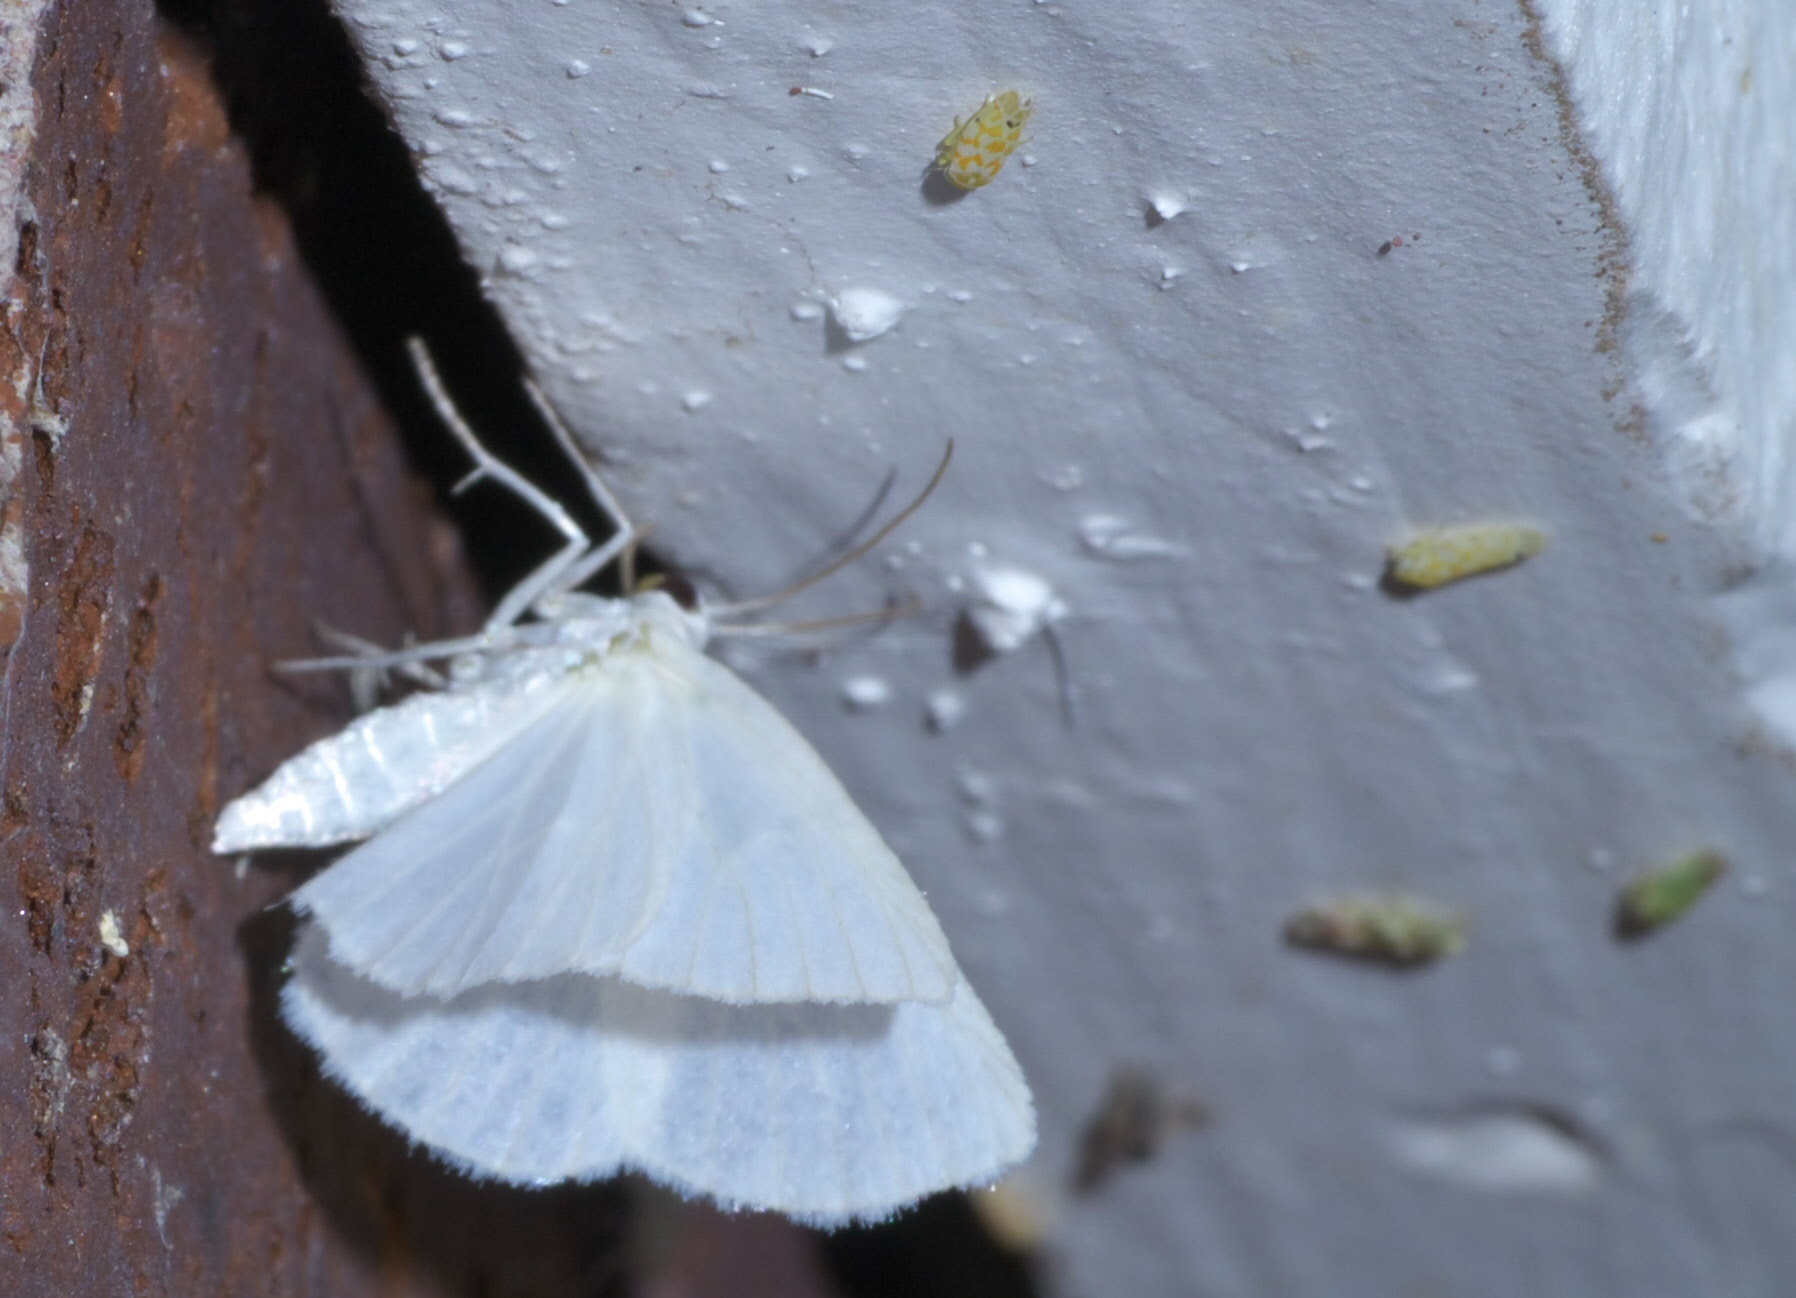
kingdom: Animalia
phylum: Arthropoda
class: Insecta
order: Lepidoptera
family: Geometridae
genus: Lomographa
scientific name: Lomographa vestaliata
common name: White spring moth
